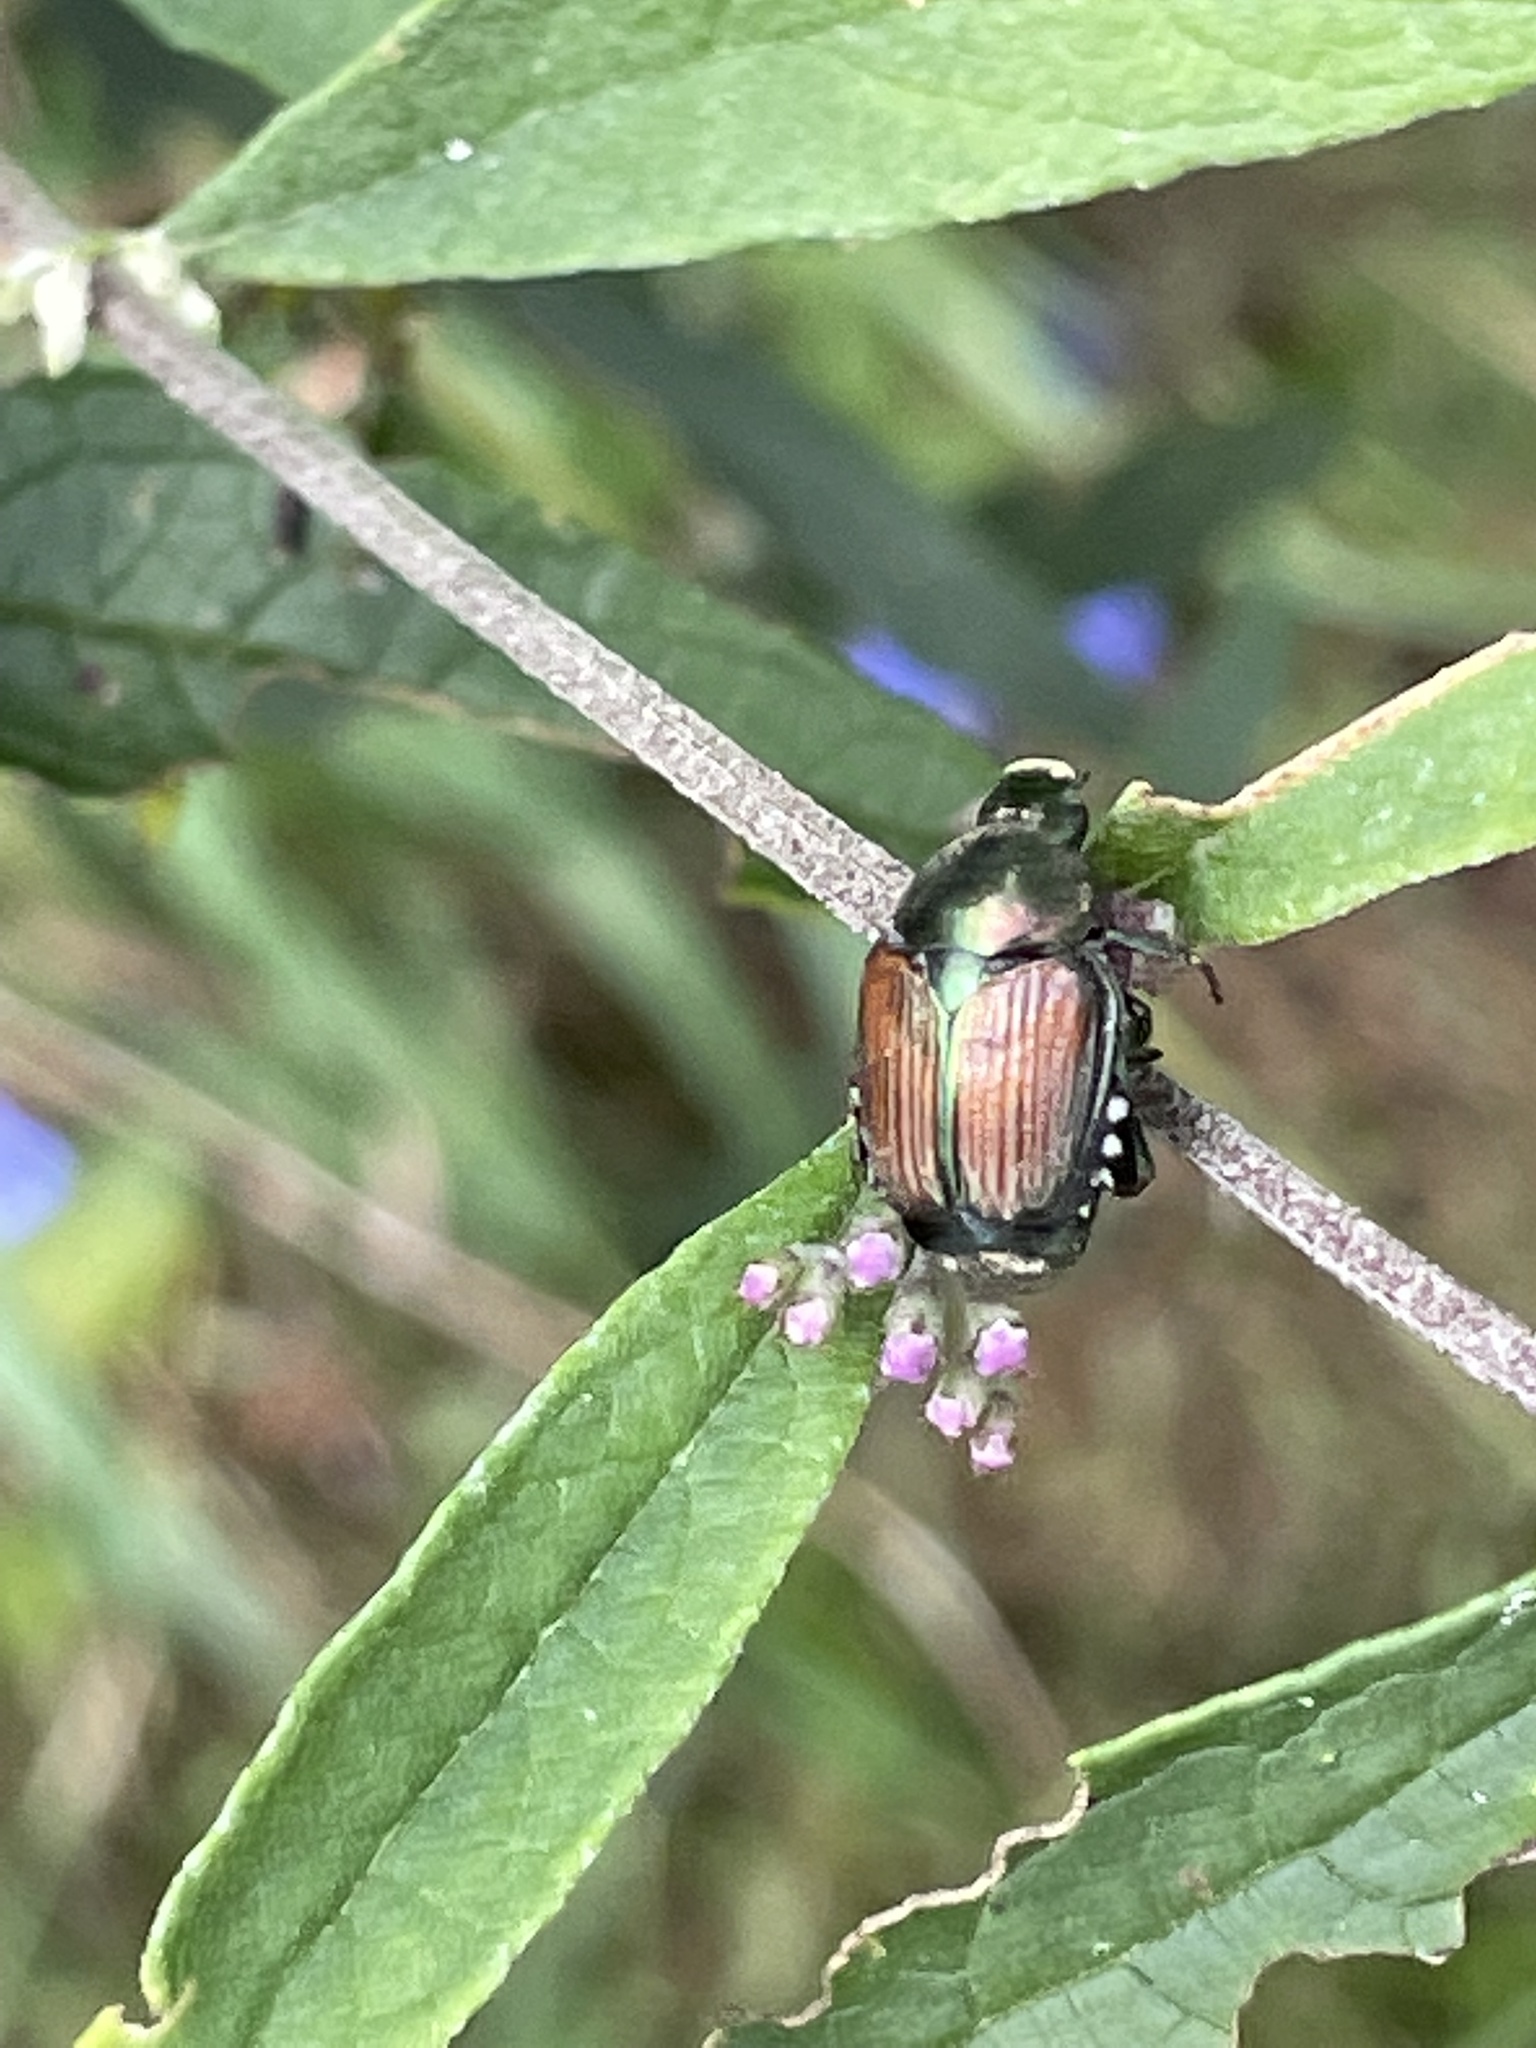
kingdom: Animalia
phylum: Arthropoda
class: Insecta
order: Coleoptera
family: Scarabaeidae
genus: Popillia
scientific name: Popillia japonica
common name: Japanese beetle
